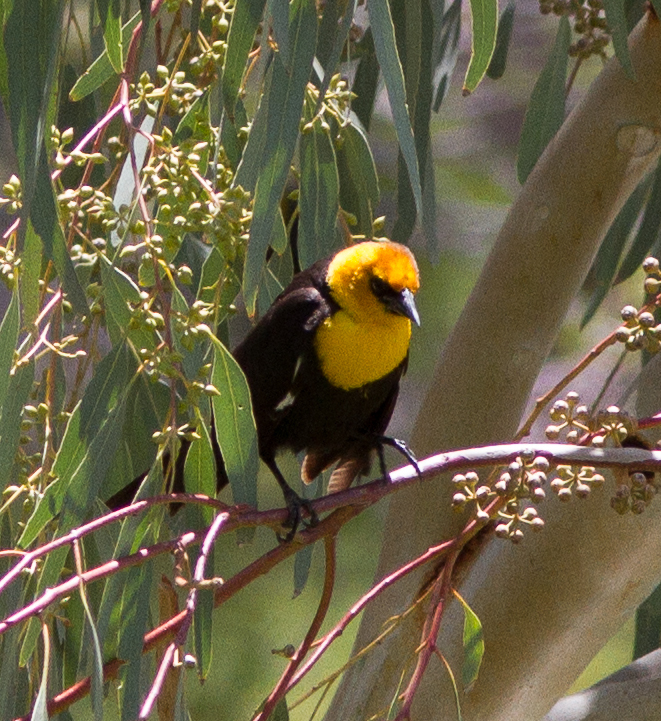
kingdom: Animalia
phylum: Chordata
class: Aves
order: Passeriformes
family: Icteridae
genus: Xanthocephalus
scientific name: Xanthocephalus xanthocephalus
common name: Yellow-headed blackbird
